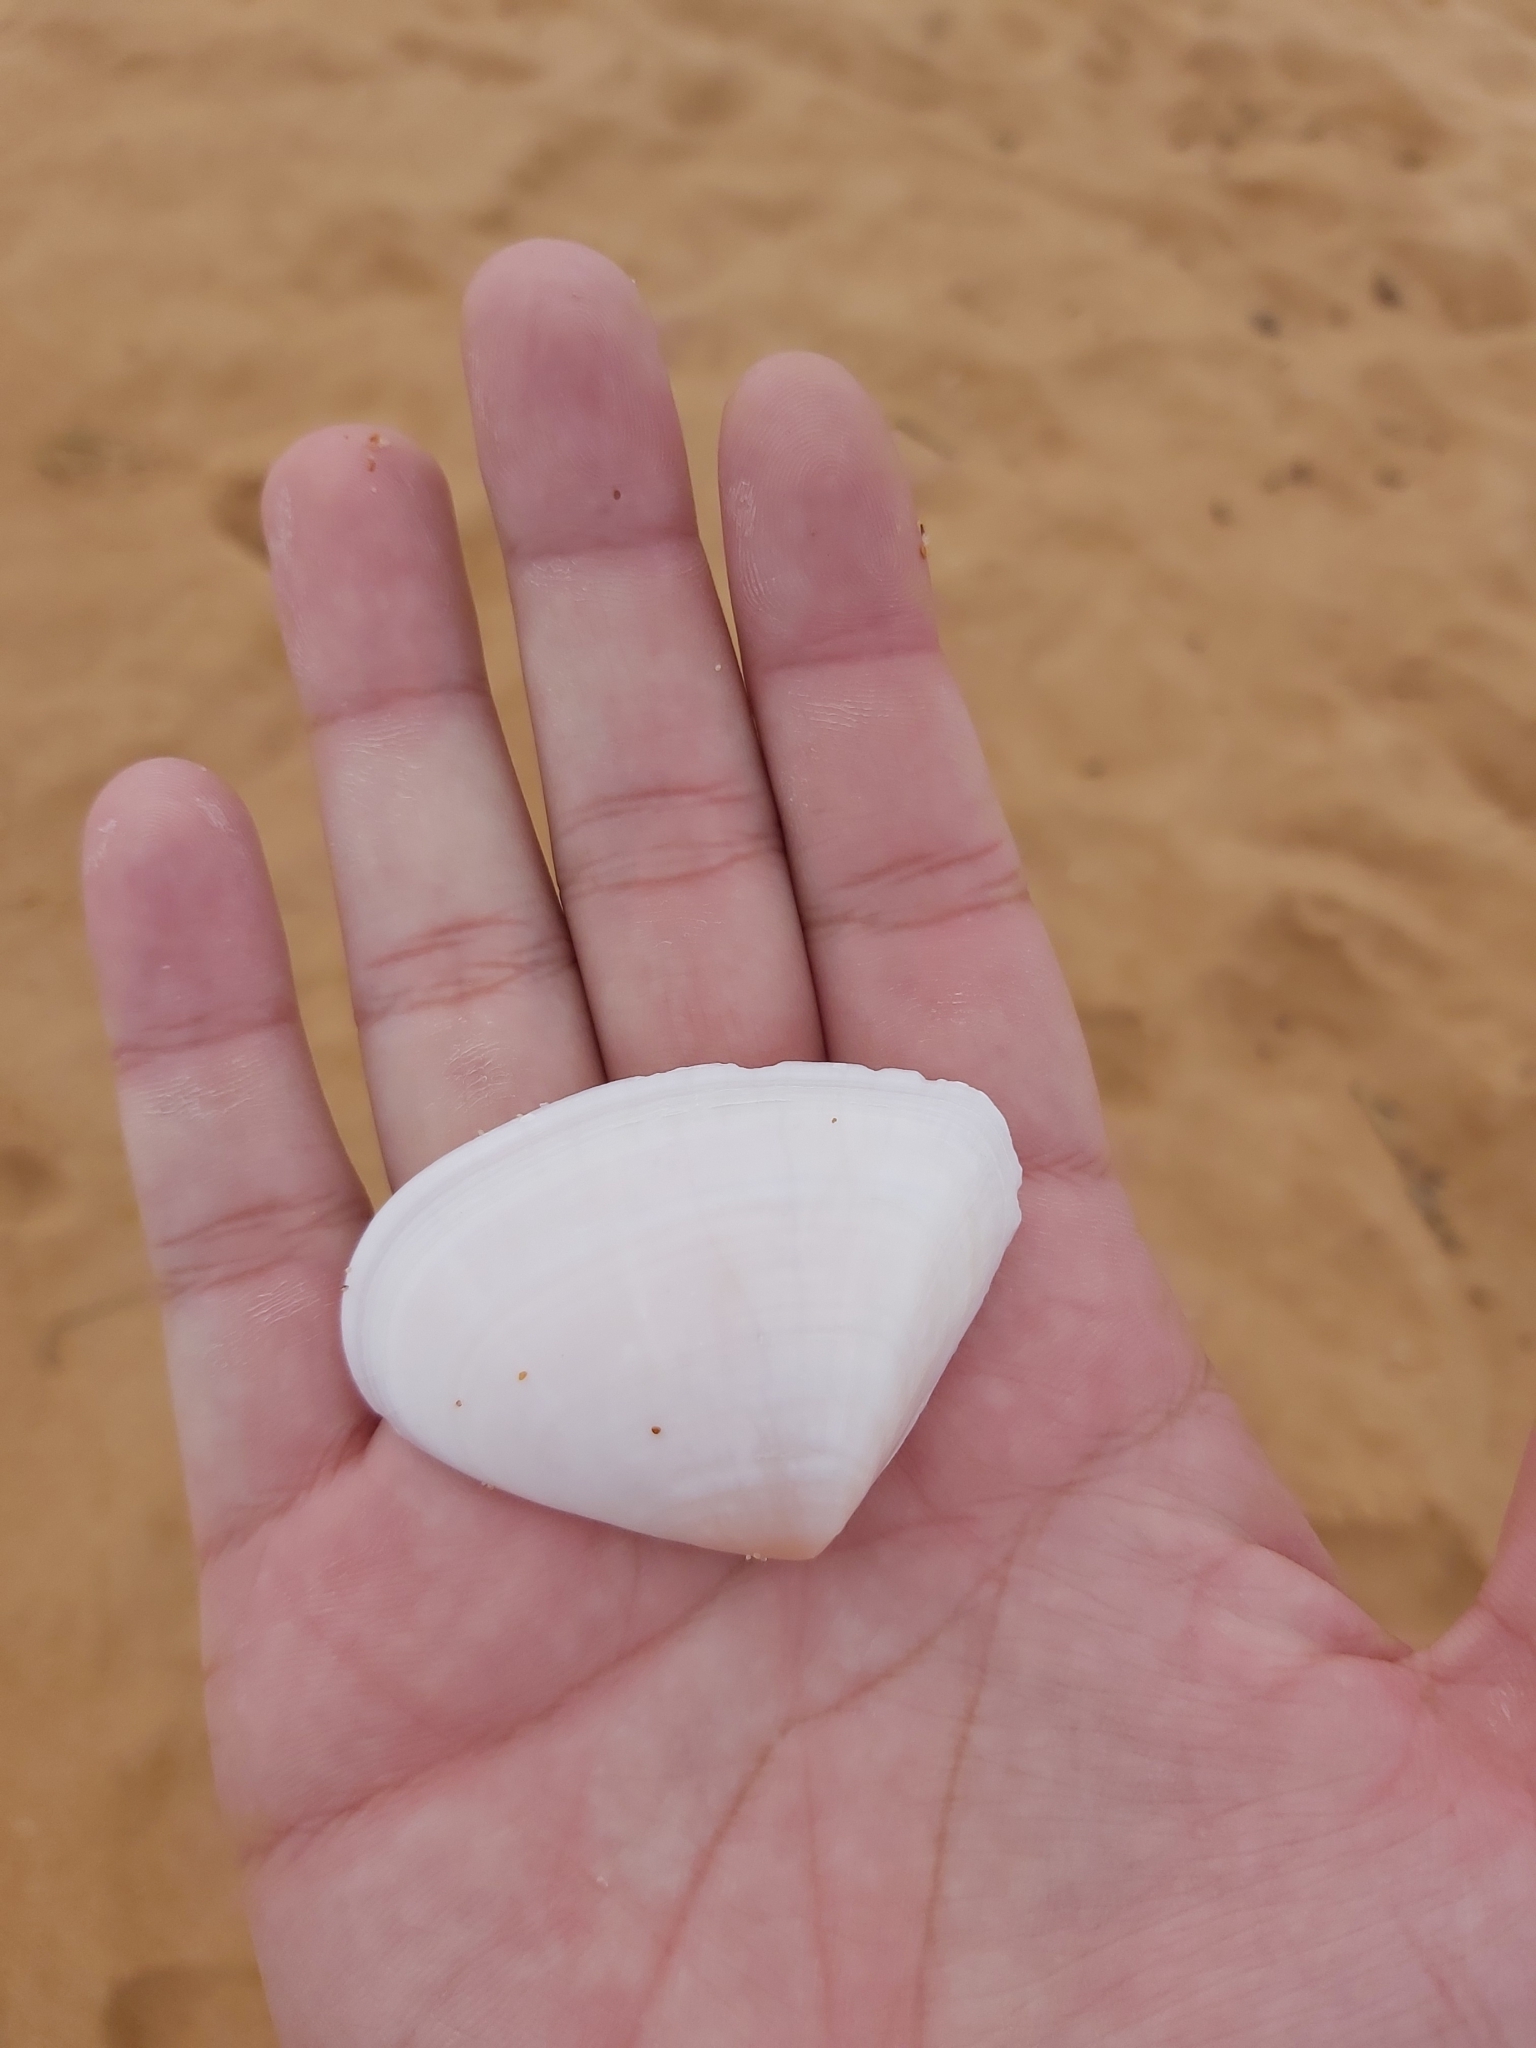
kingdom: Animalia
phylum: Mollusca
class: Bivalvia
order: Cardiida
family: Donacidae
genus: Latona
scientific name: Latona deltoides
